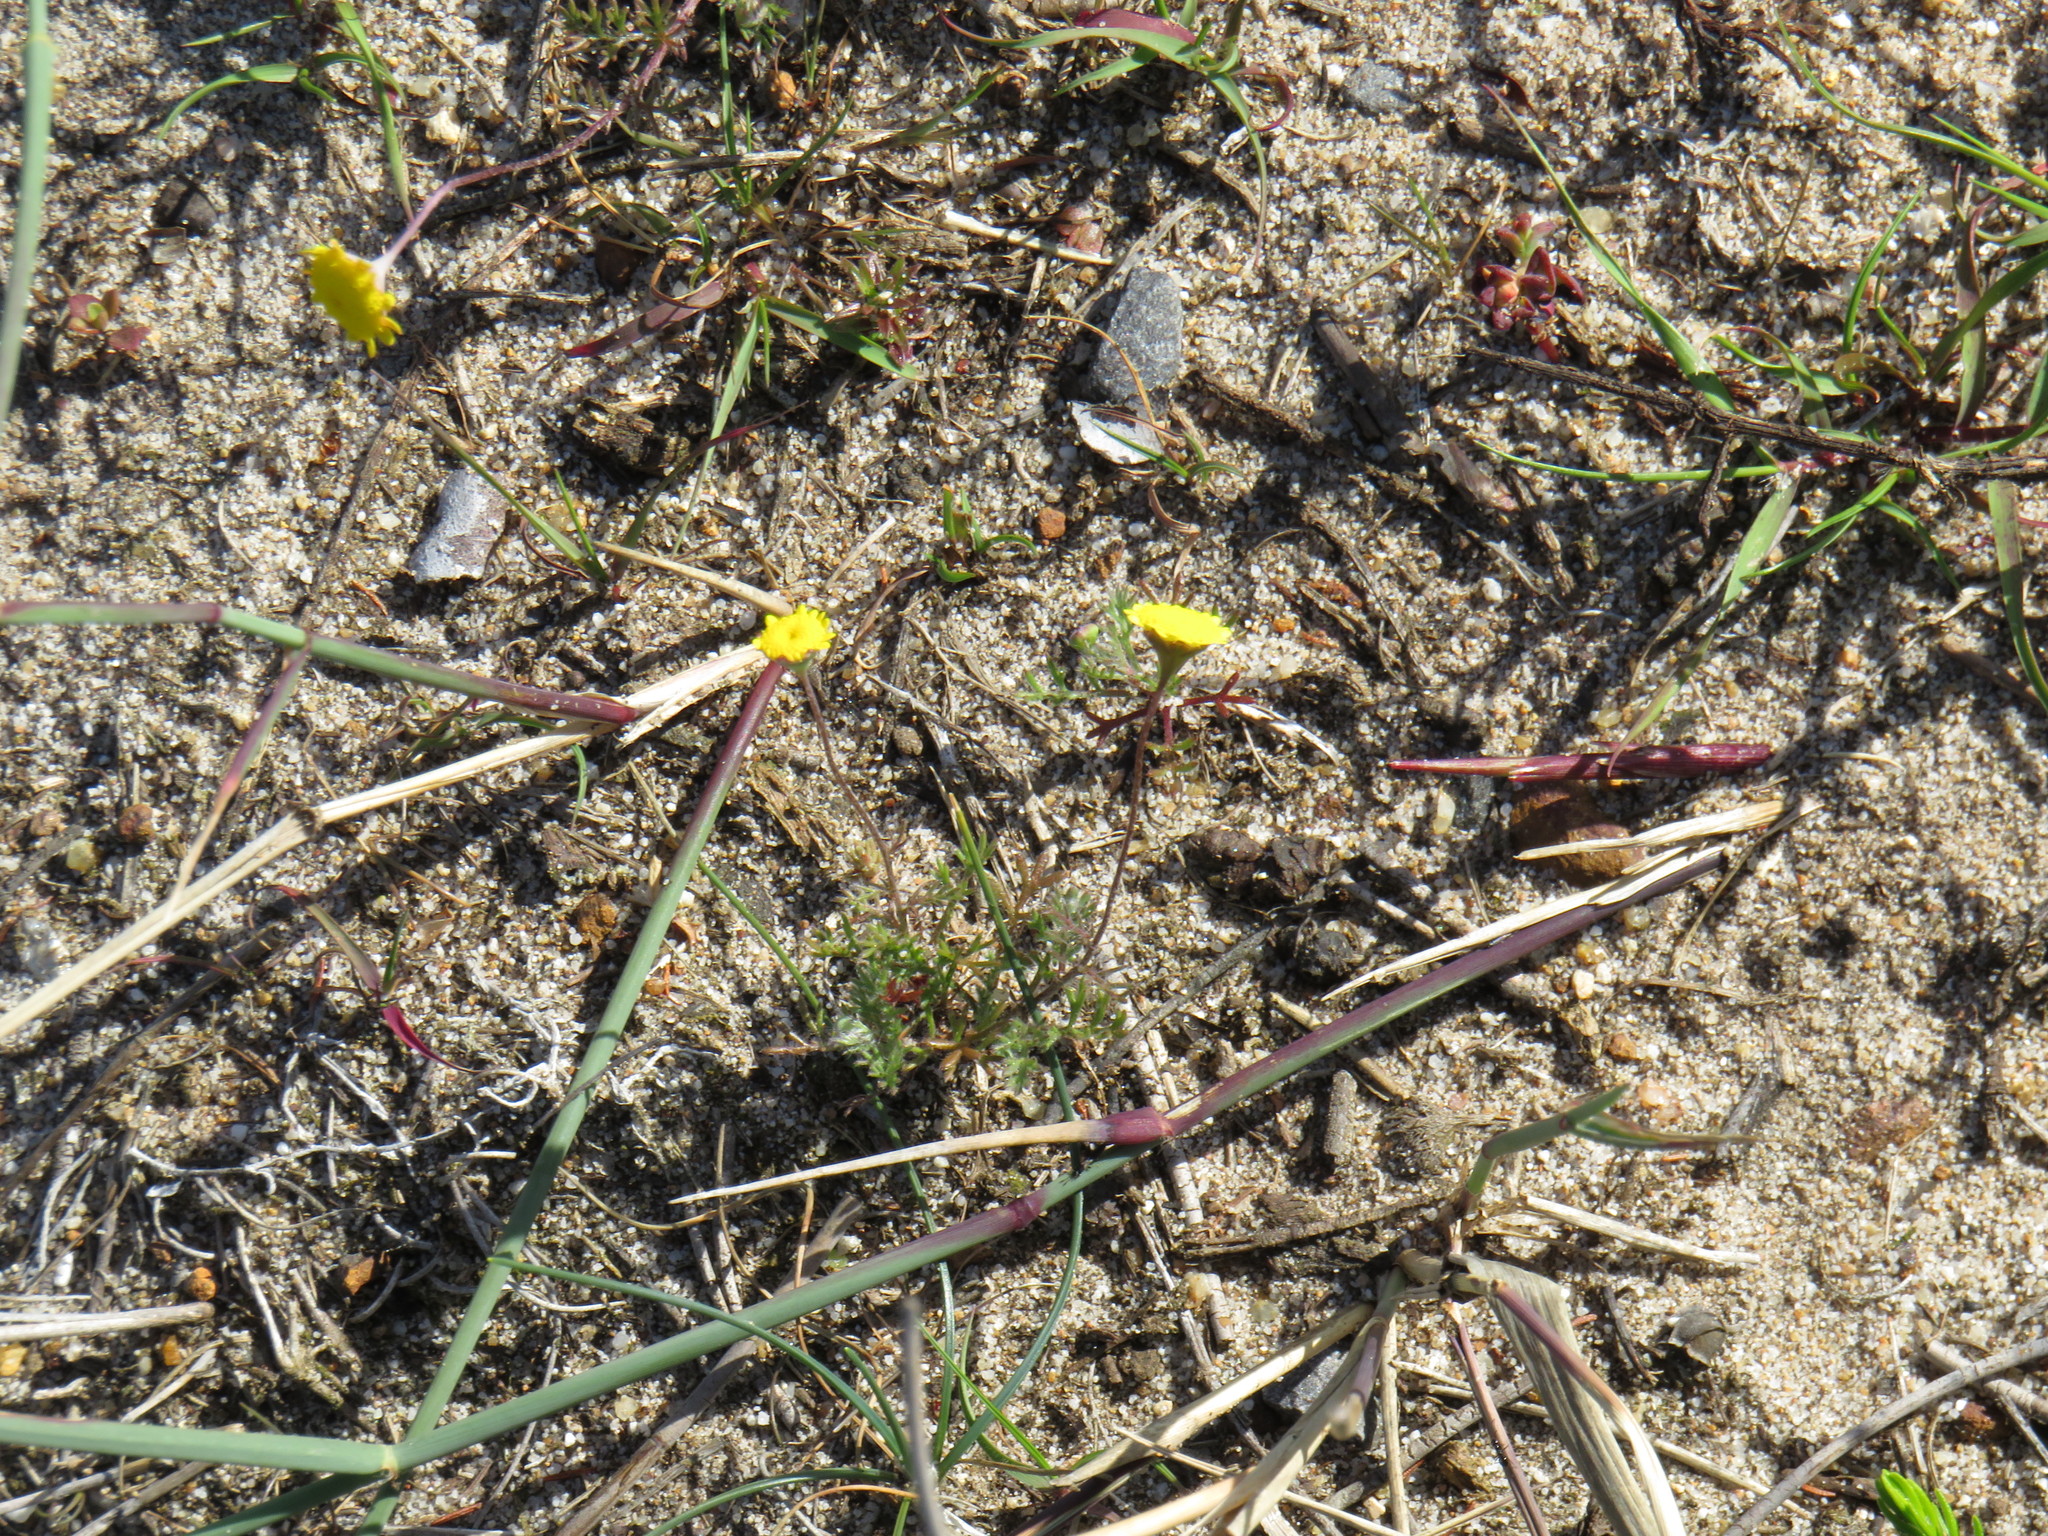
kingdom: Plantae
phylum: Tracheophyta
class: Magnoliopsida
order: Asterales
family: Asteraceae
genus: Cotula
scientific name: Cotula pruinosa
